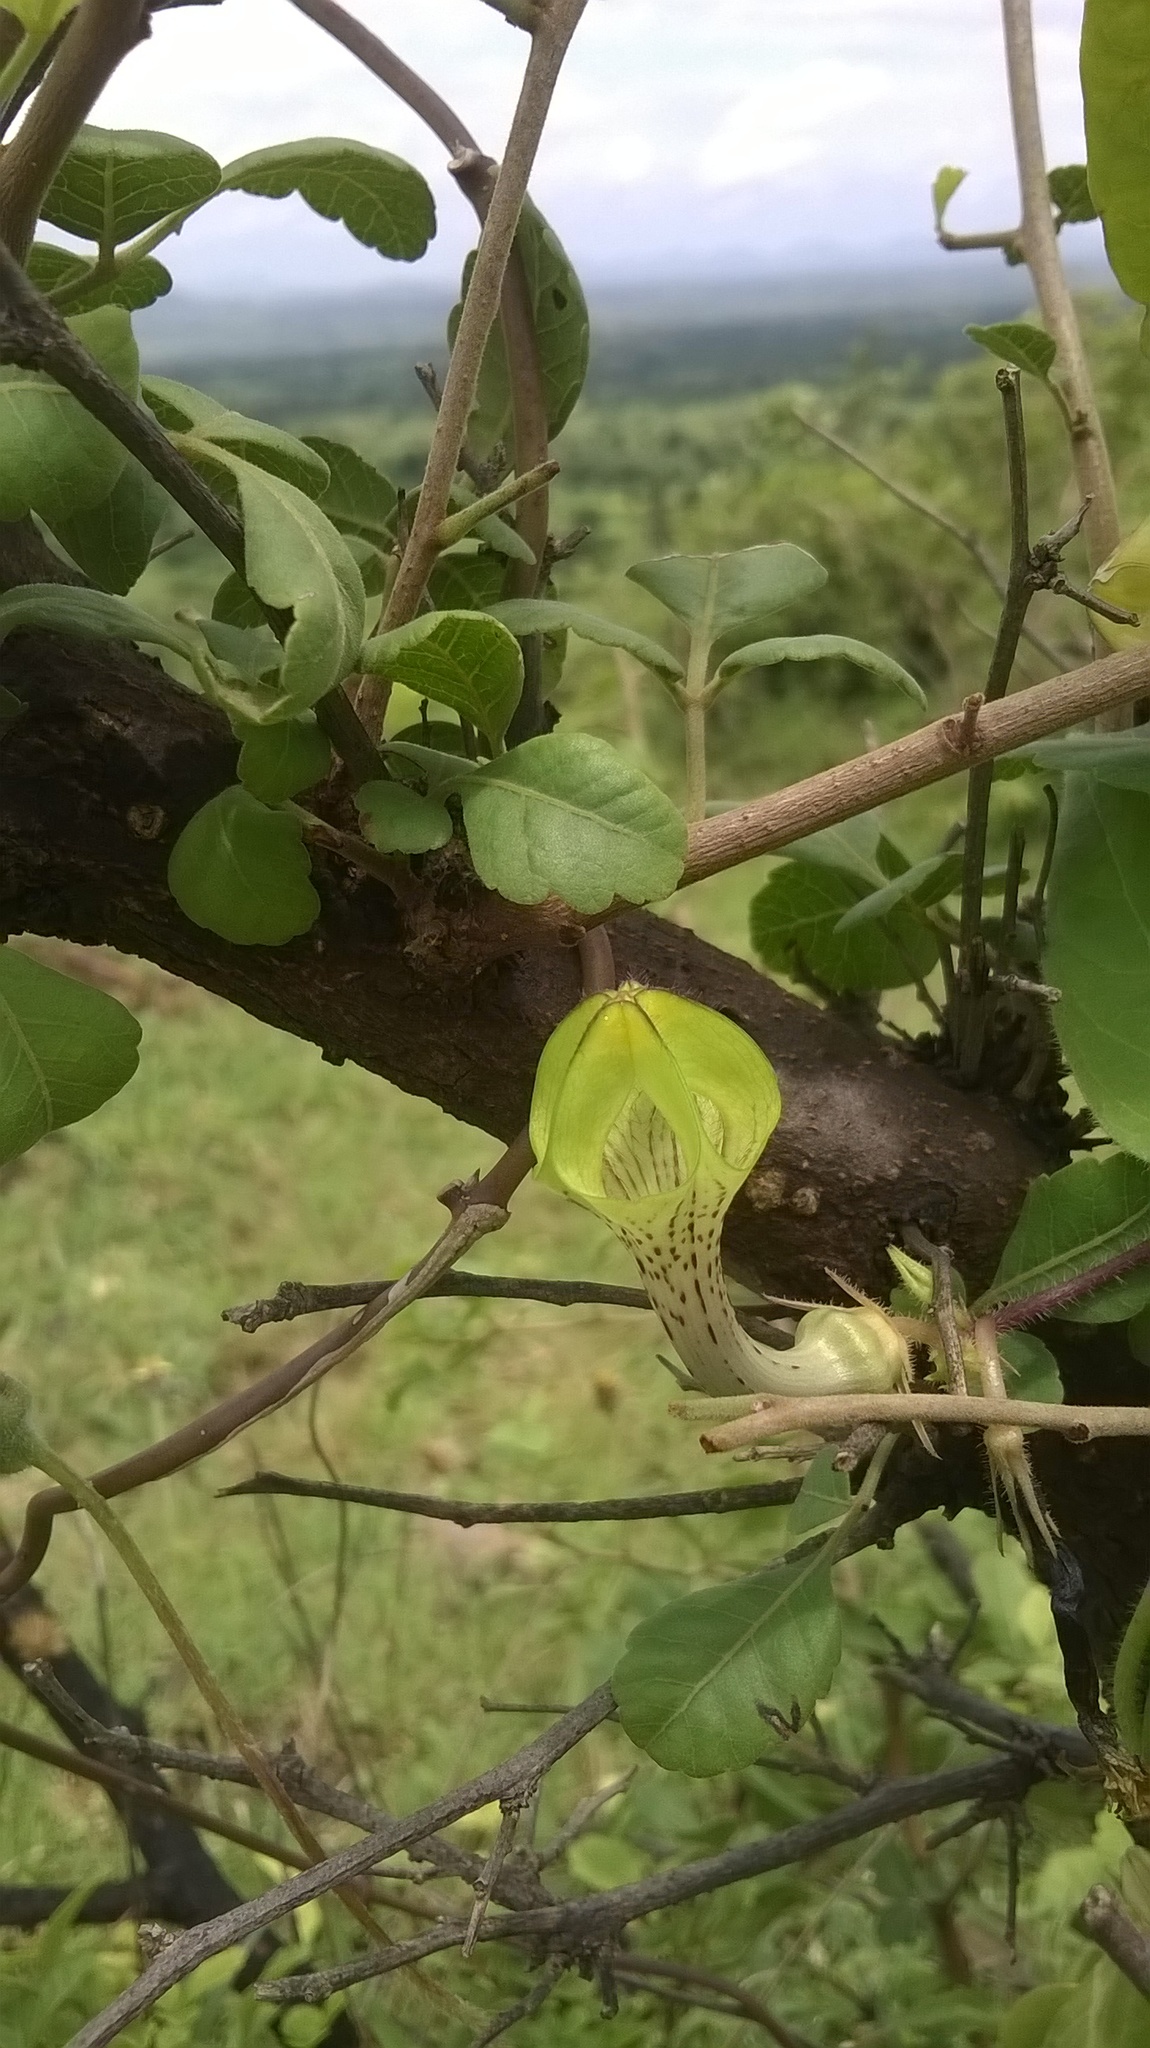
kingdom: Plantae
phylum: Tracheophyta
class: Magnoliopsida
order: Gentianales
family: Apocynaceae
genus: Ceropegia
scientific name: Ceropegia hirsuta
